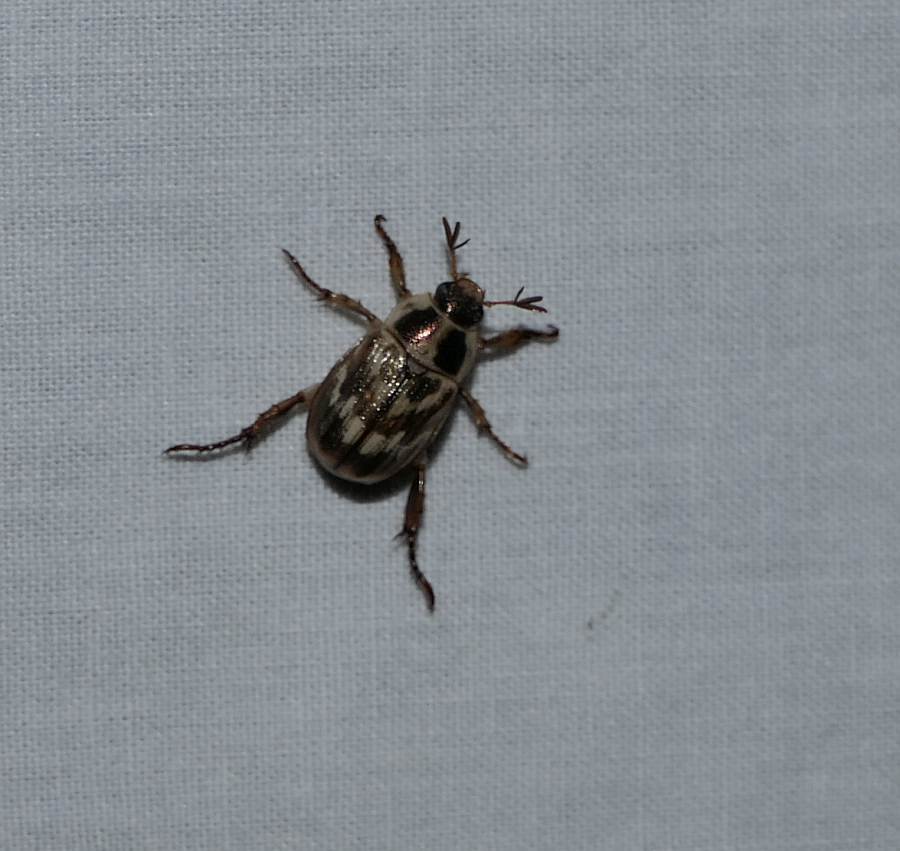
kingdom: Animalia
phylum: Arthropoda
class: Insecta
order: Coleoptera
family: Scarabaeidae
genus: Exomala
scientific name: Exomala orientalis
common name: Oriental beetle
